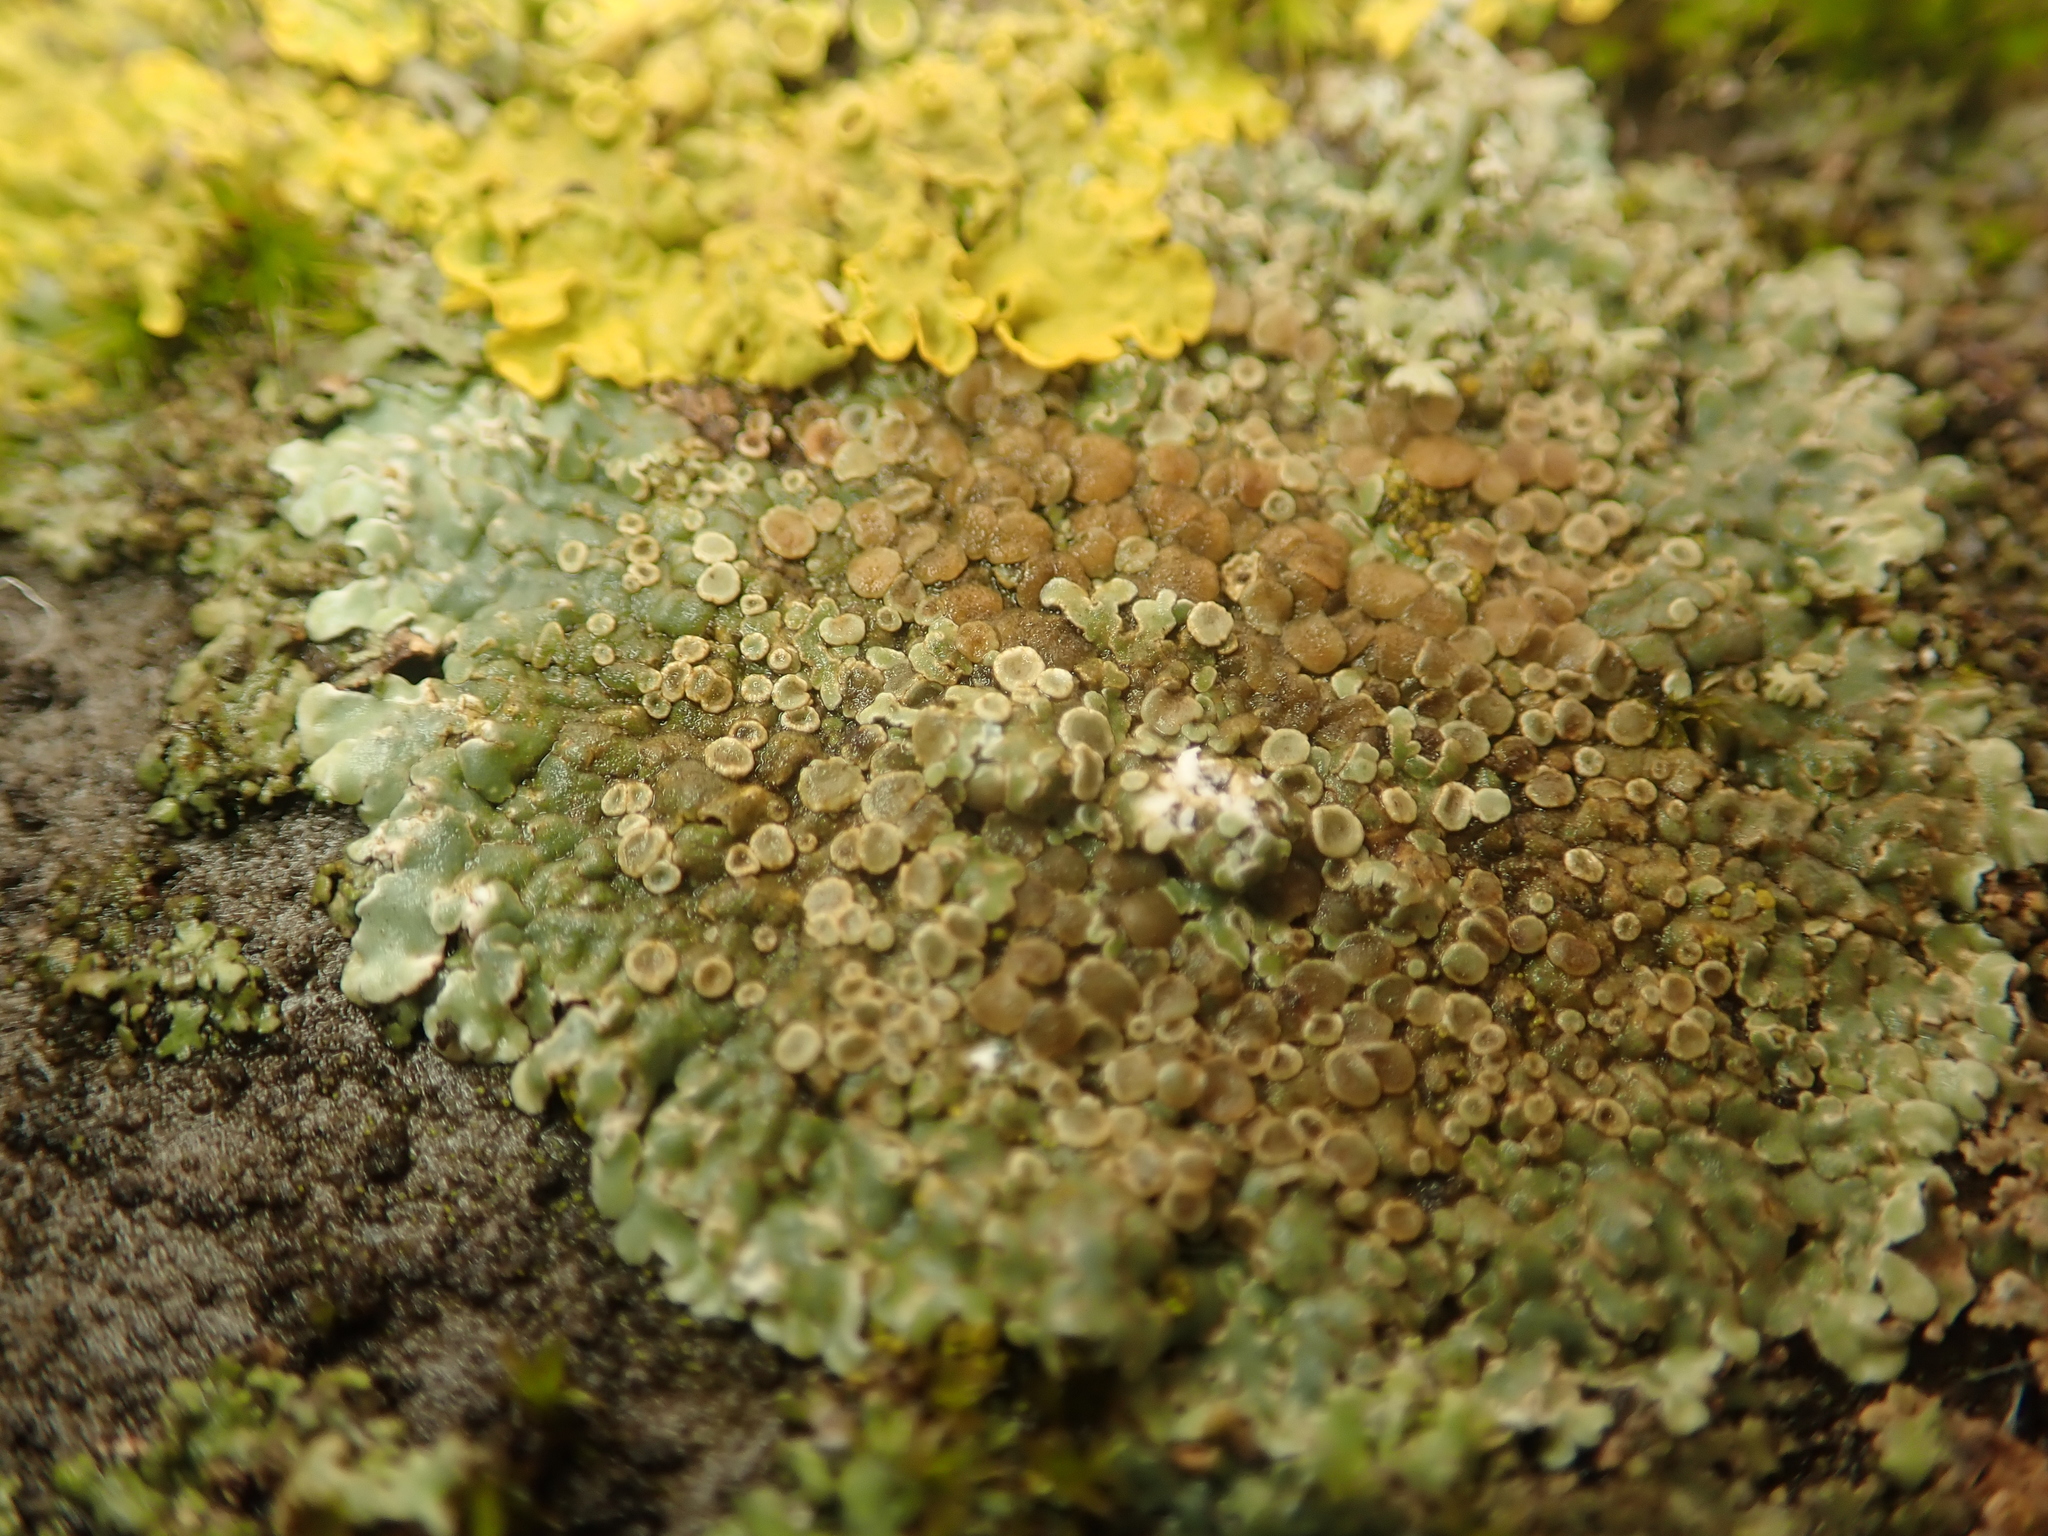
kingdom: Fungi
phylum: Ascomycota
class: Lecanoromycetes
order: Lecanorales
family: Lecanoraceae
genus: Protoparmeliopsis
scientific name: Protoparmeliopsis muralis
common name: Stonewall rim lichen
